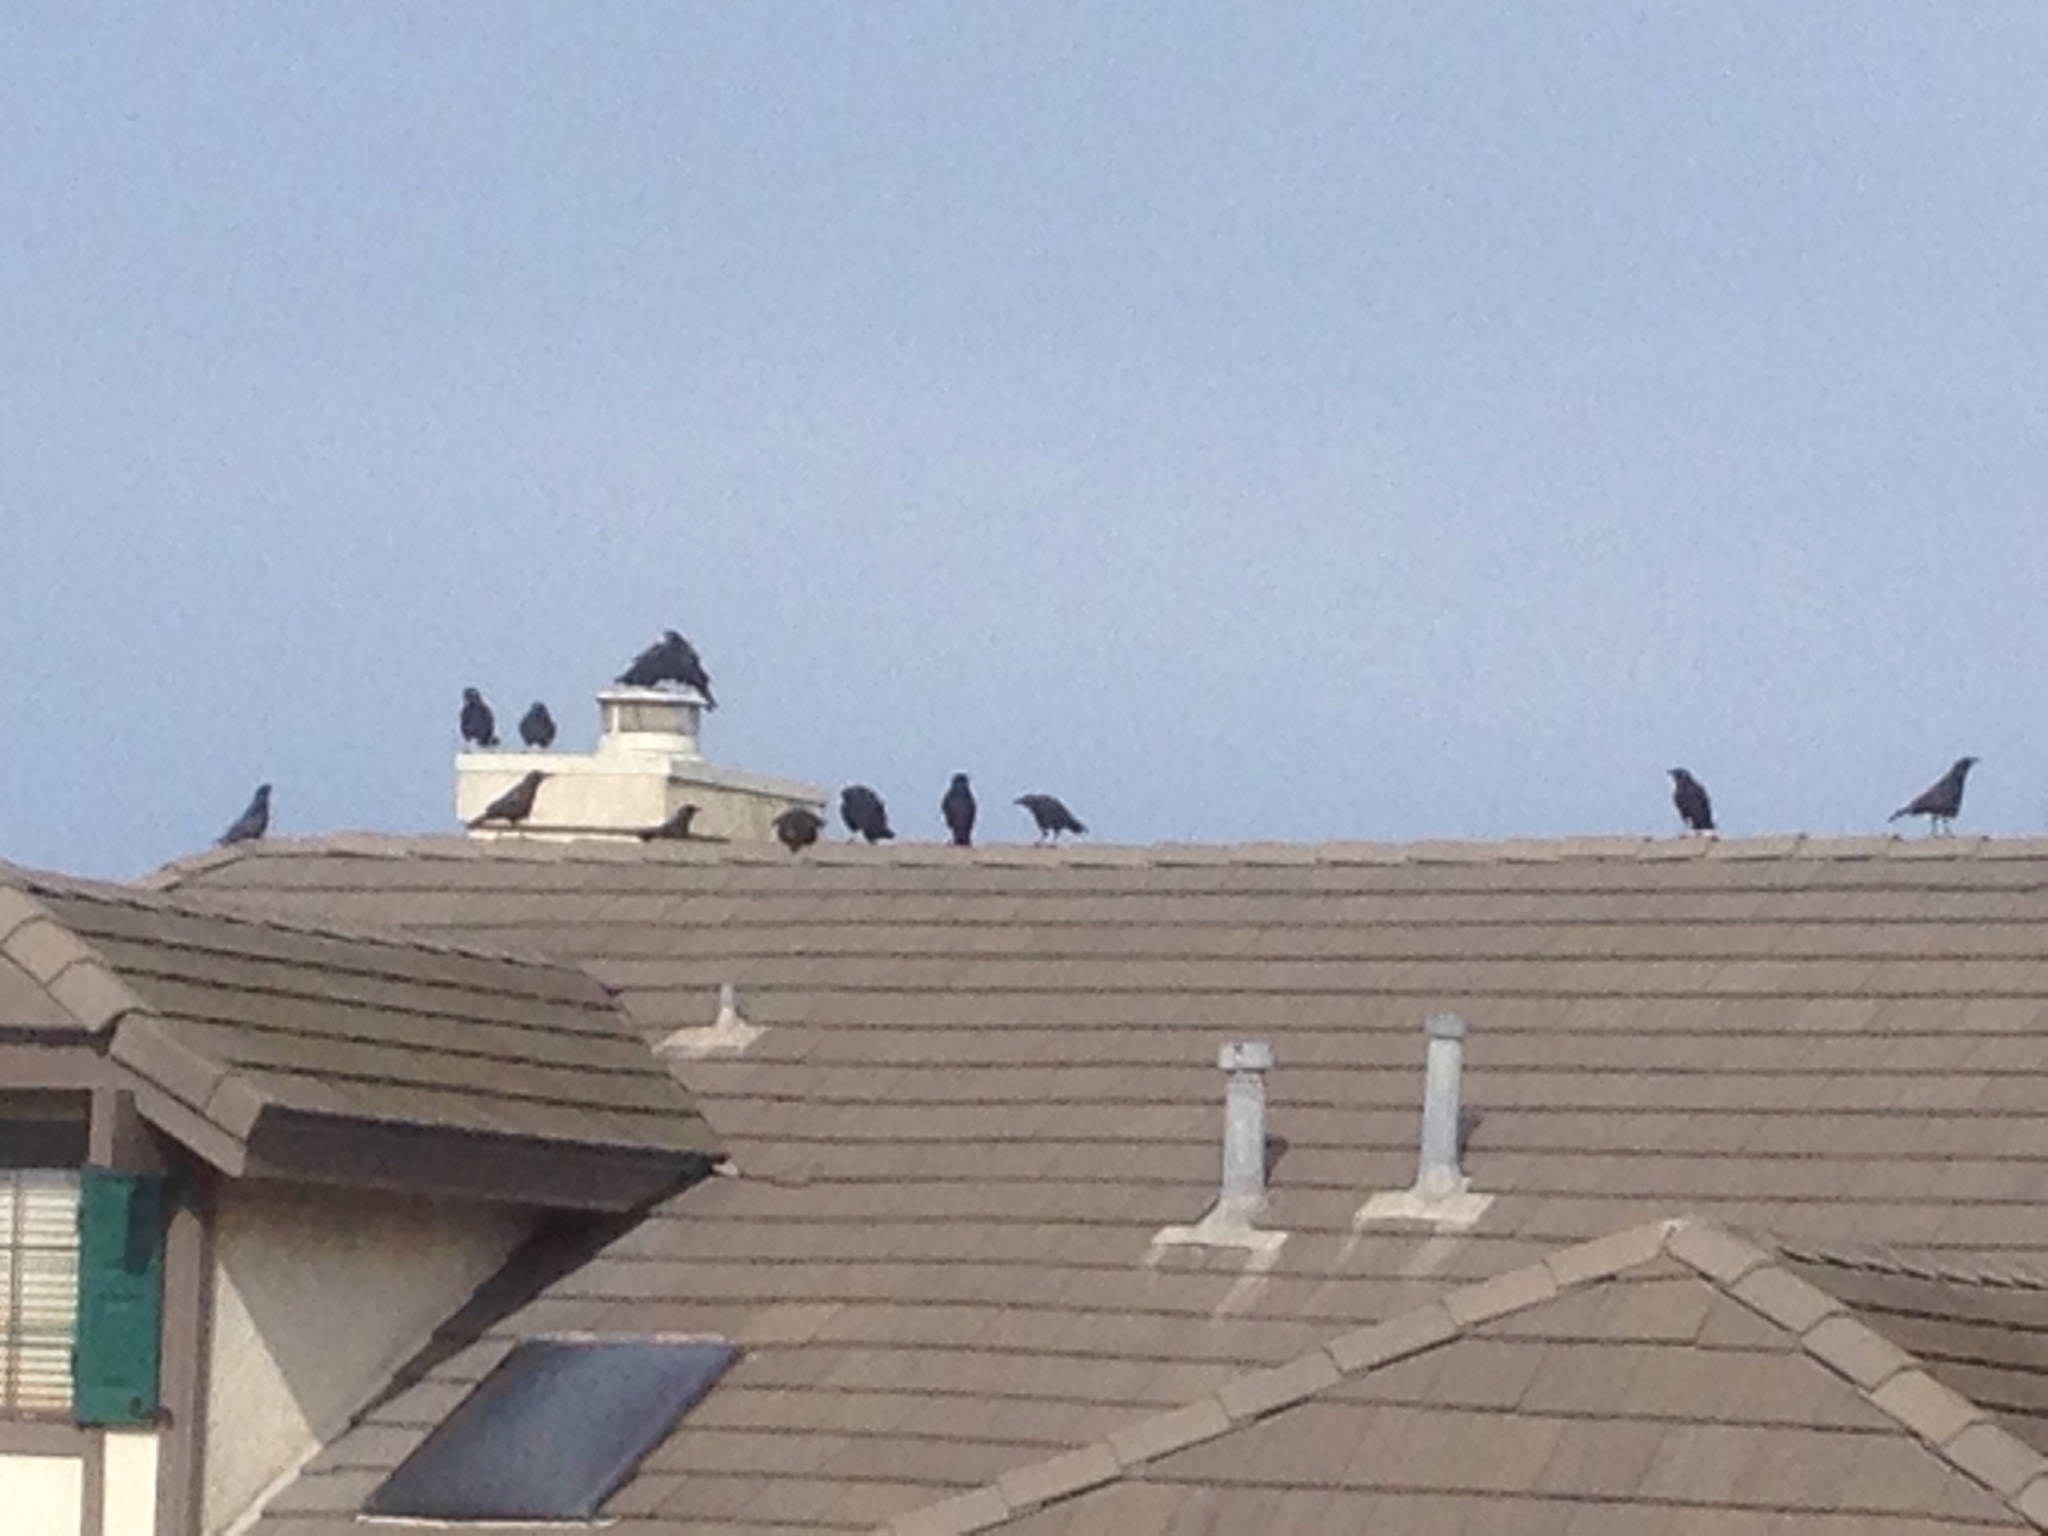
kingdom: Animalia
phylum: Chordata
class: Aves
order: Passeriformes
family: Corvidae
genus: Corvus
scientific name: Corvus brachyrhynchos
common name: American crow
